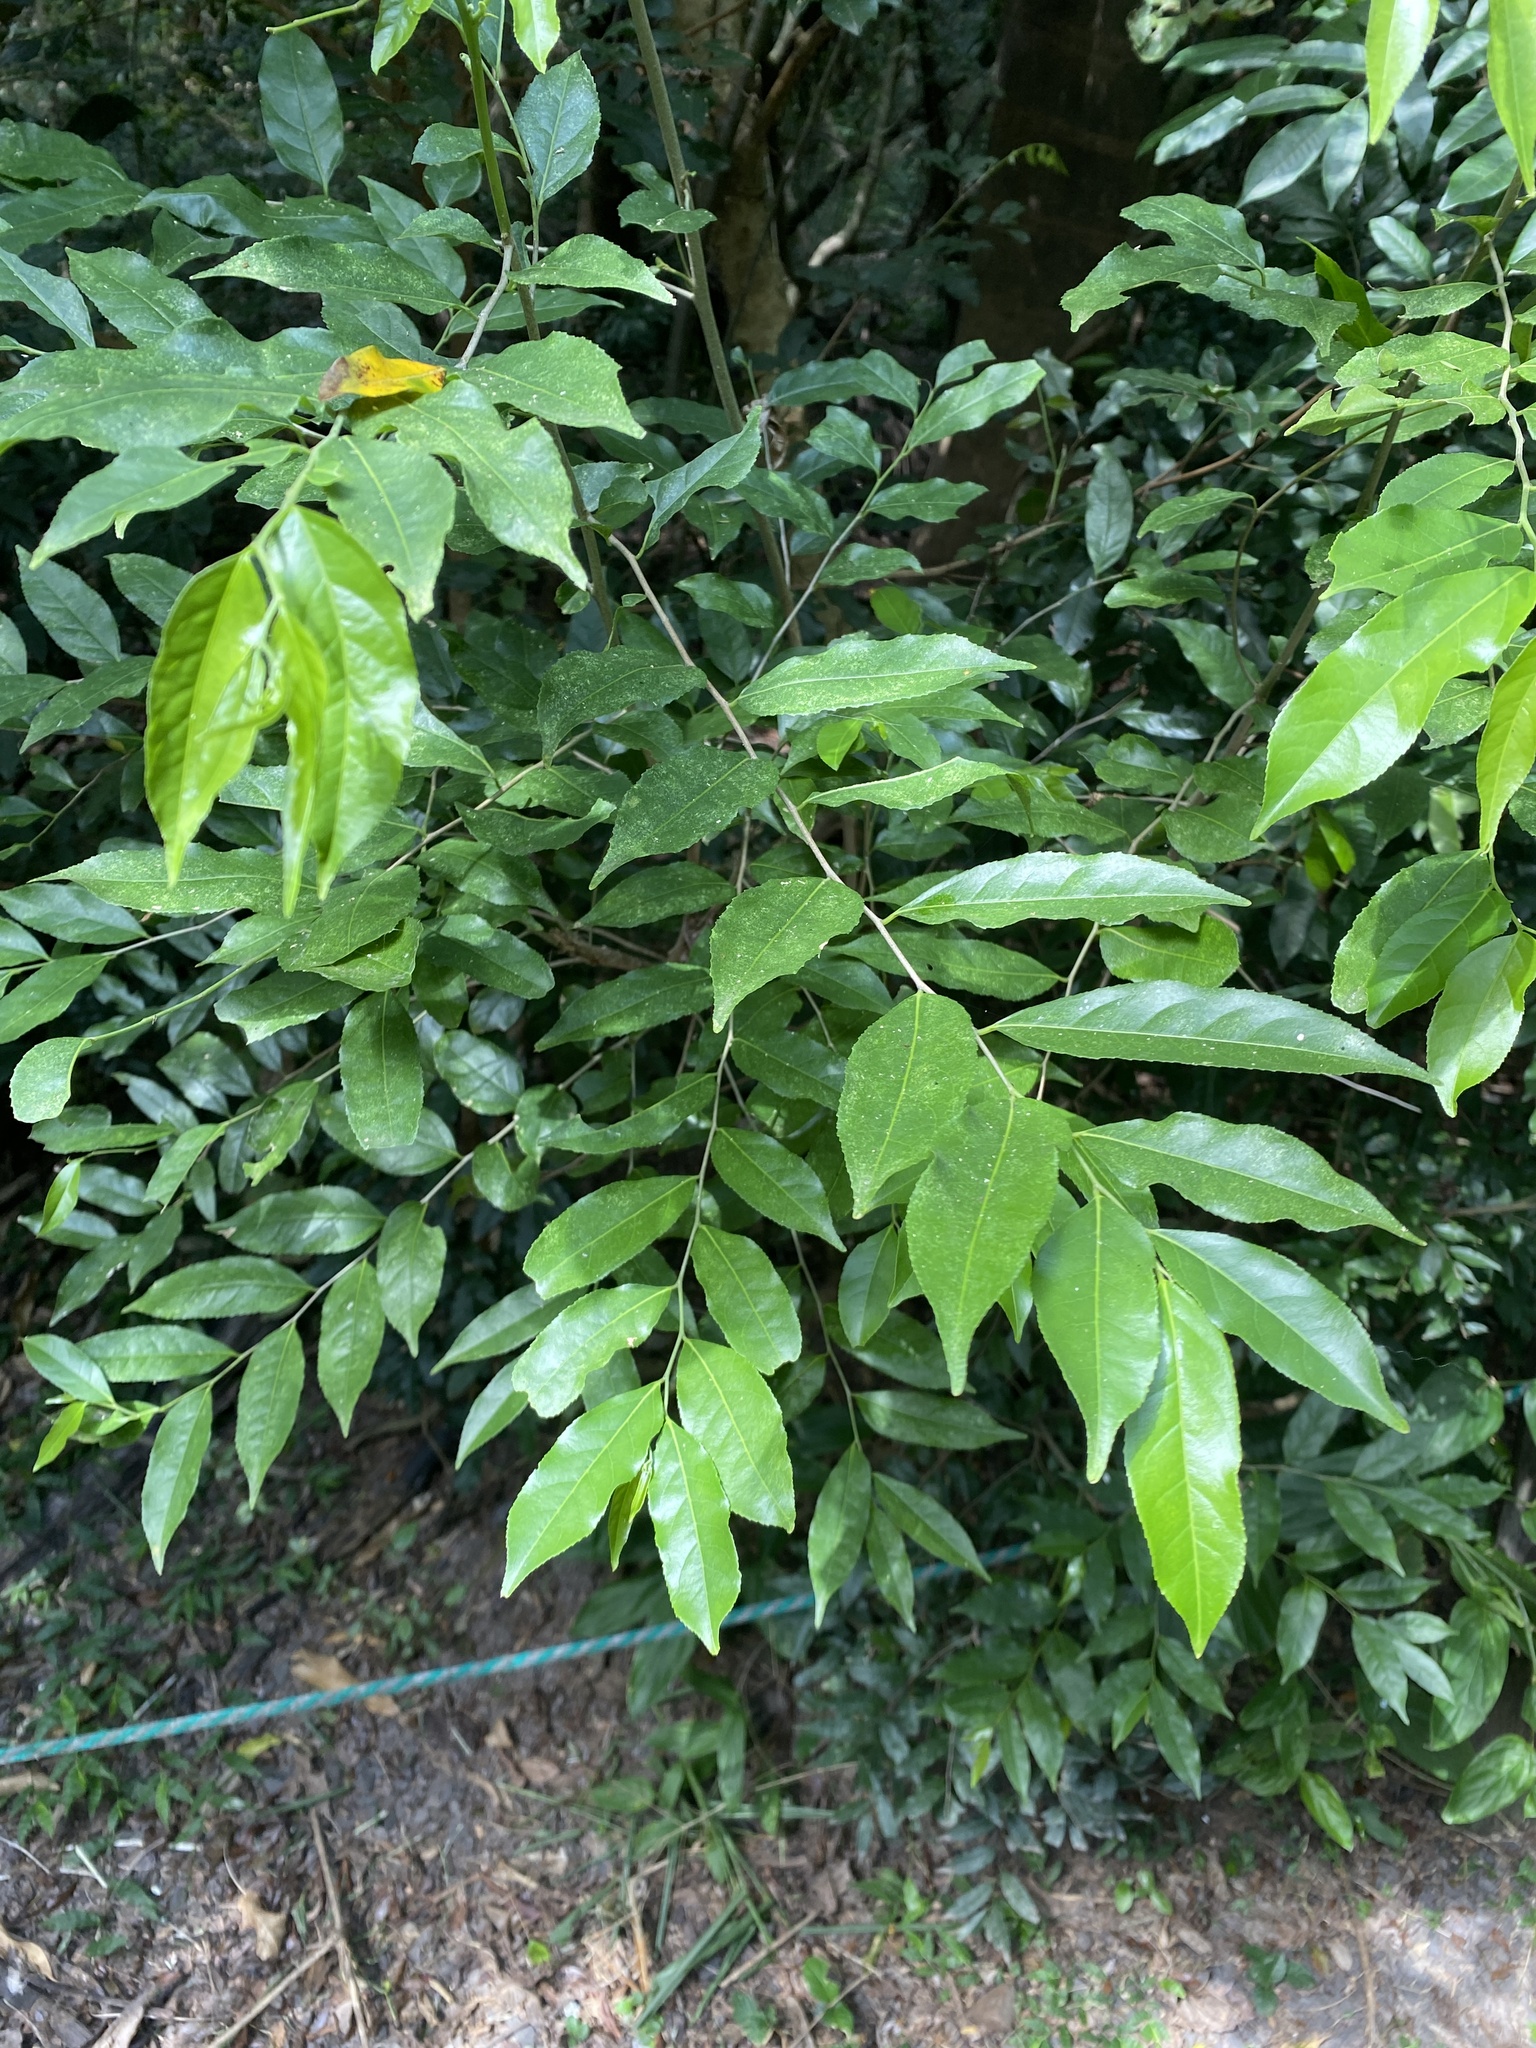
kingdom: Plantae
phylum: Tracheophyta
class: Magnoliopsida
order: Malpighiales
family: Salicaceae
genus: Casearia
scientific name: Casearia sylvestris
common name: Wild sage
